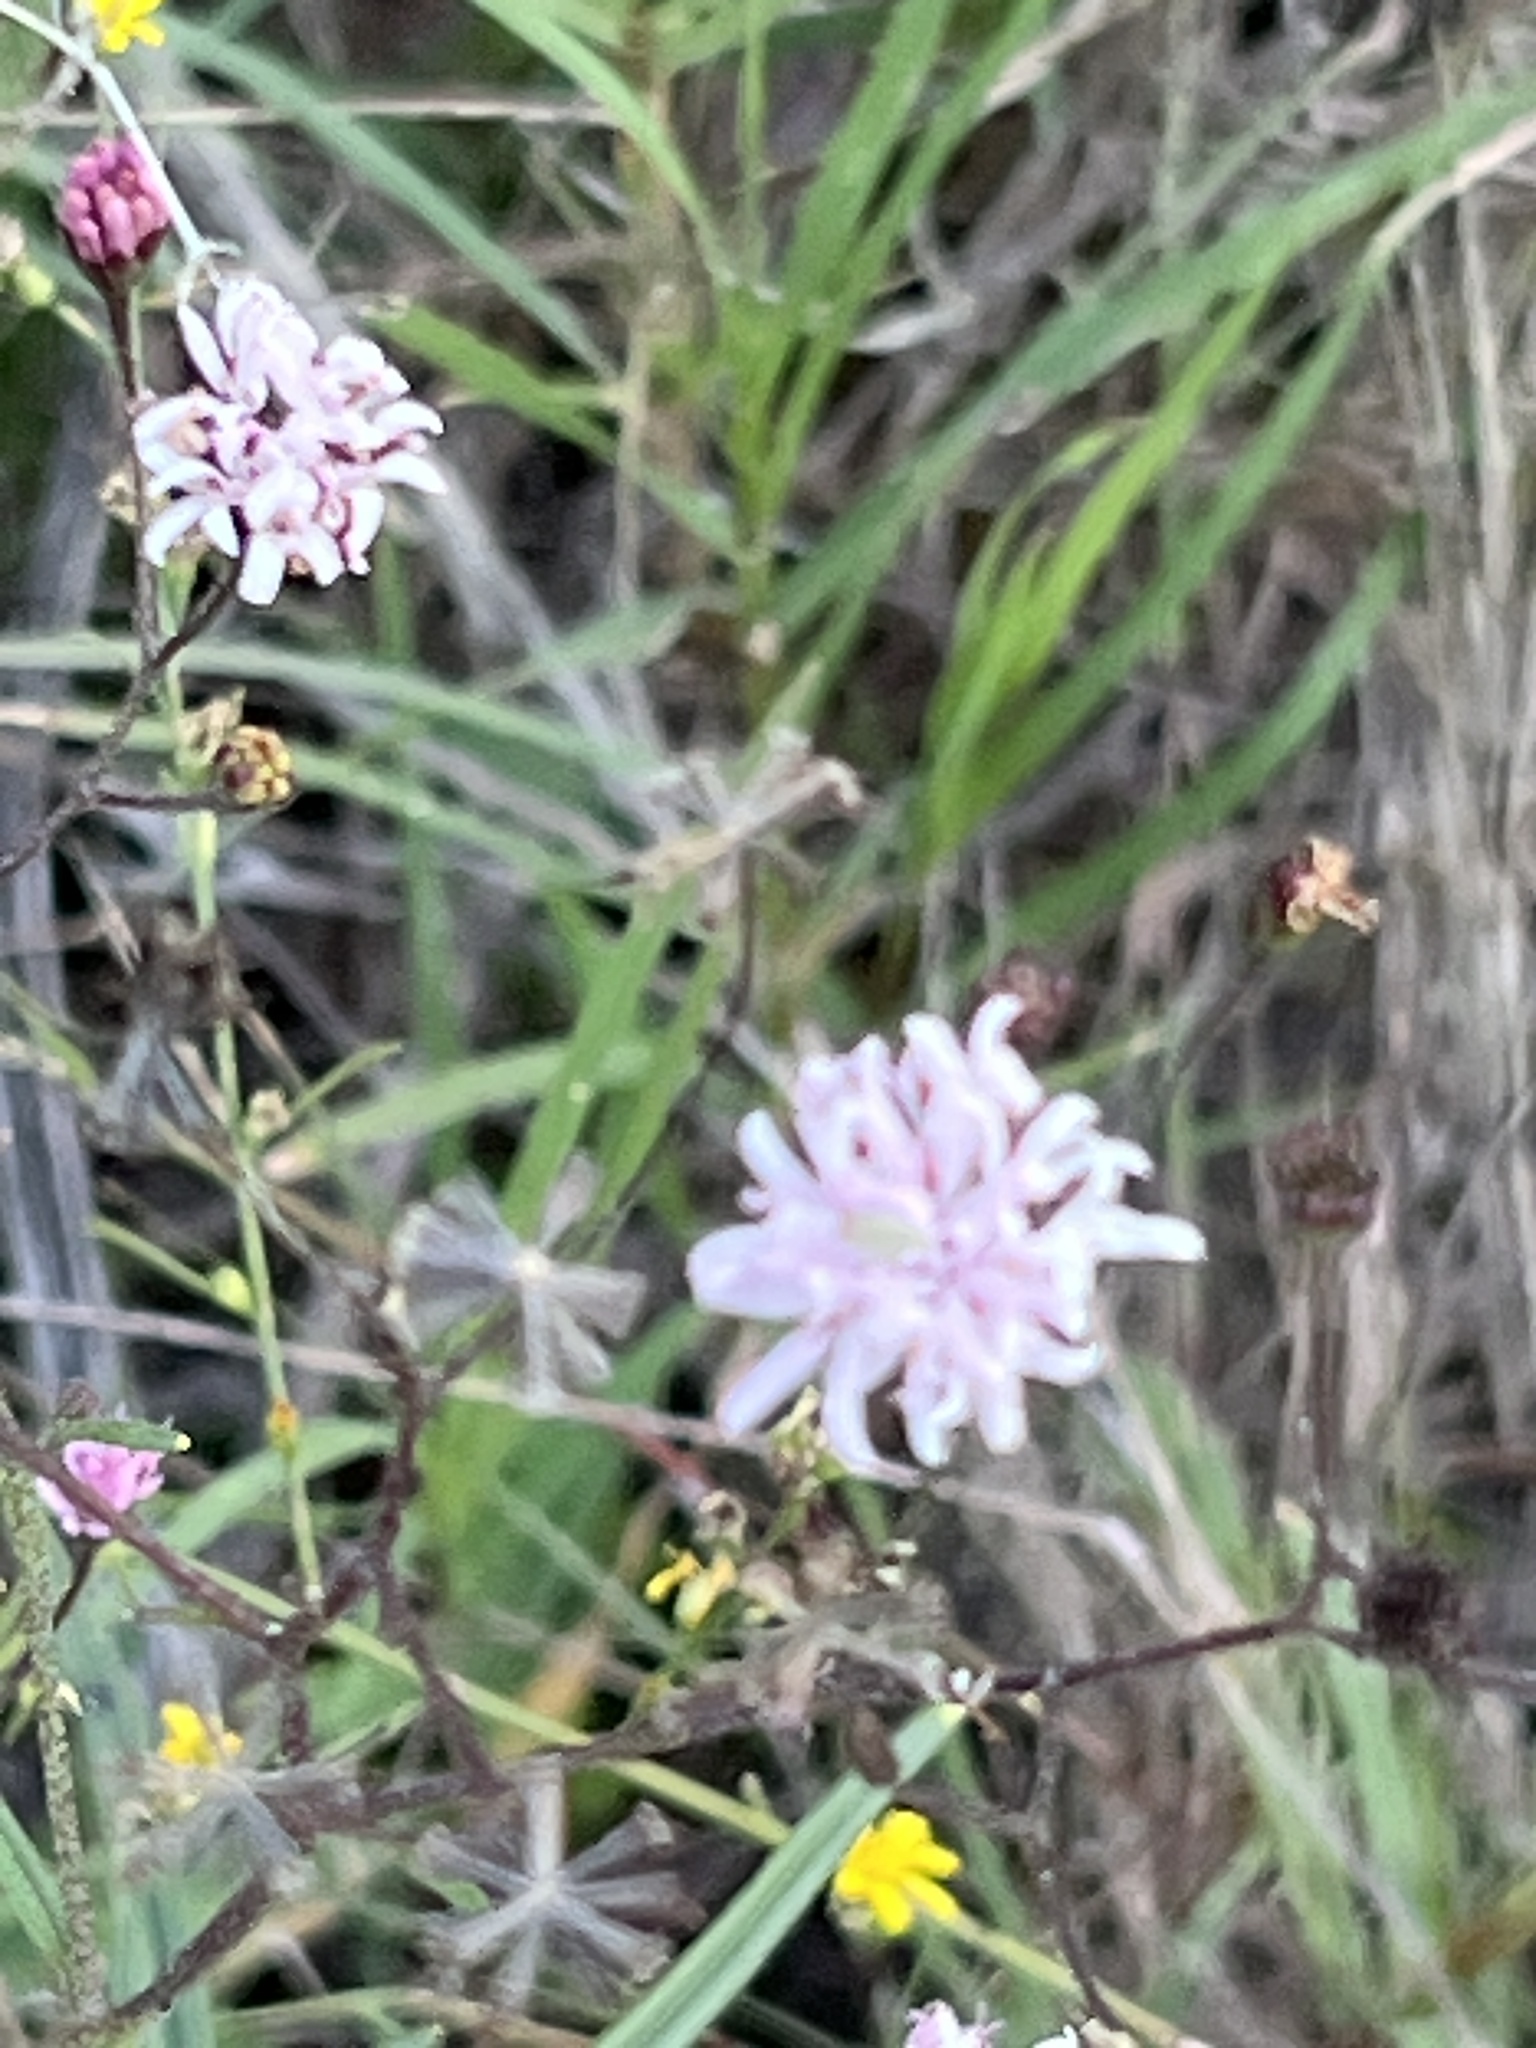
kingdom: Plantae
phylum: Tracheophyta
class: Magnoliopsida
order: Asterales
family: Asteraceae
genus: Palafoxia
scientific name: Palafoxia callosa
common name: Small palafox
